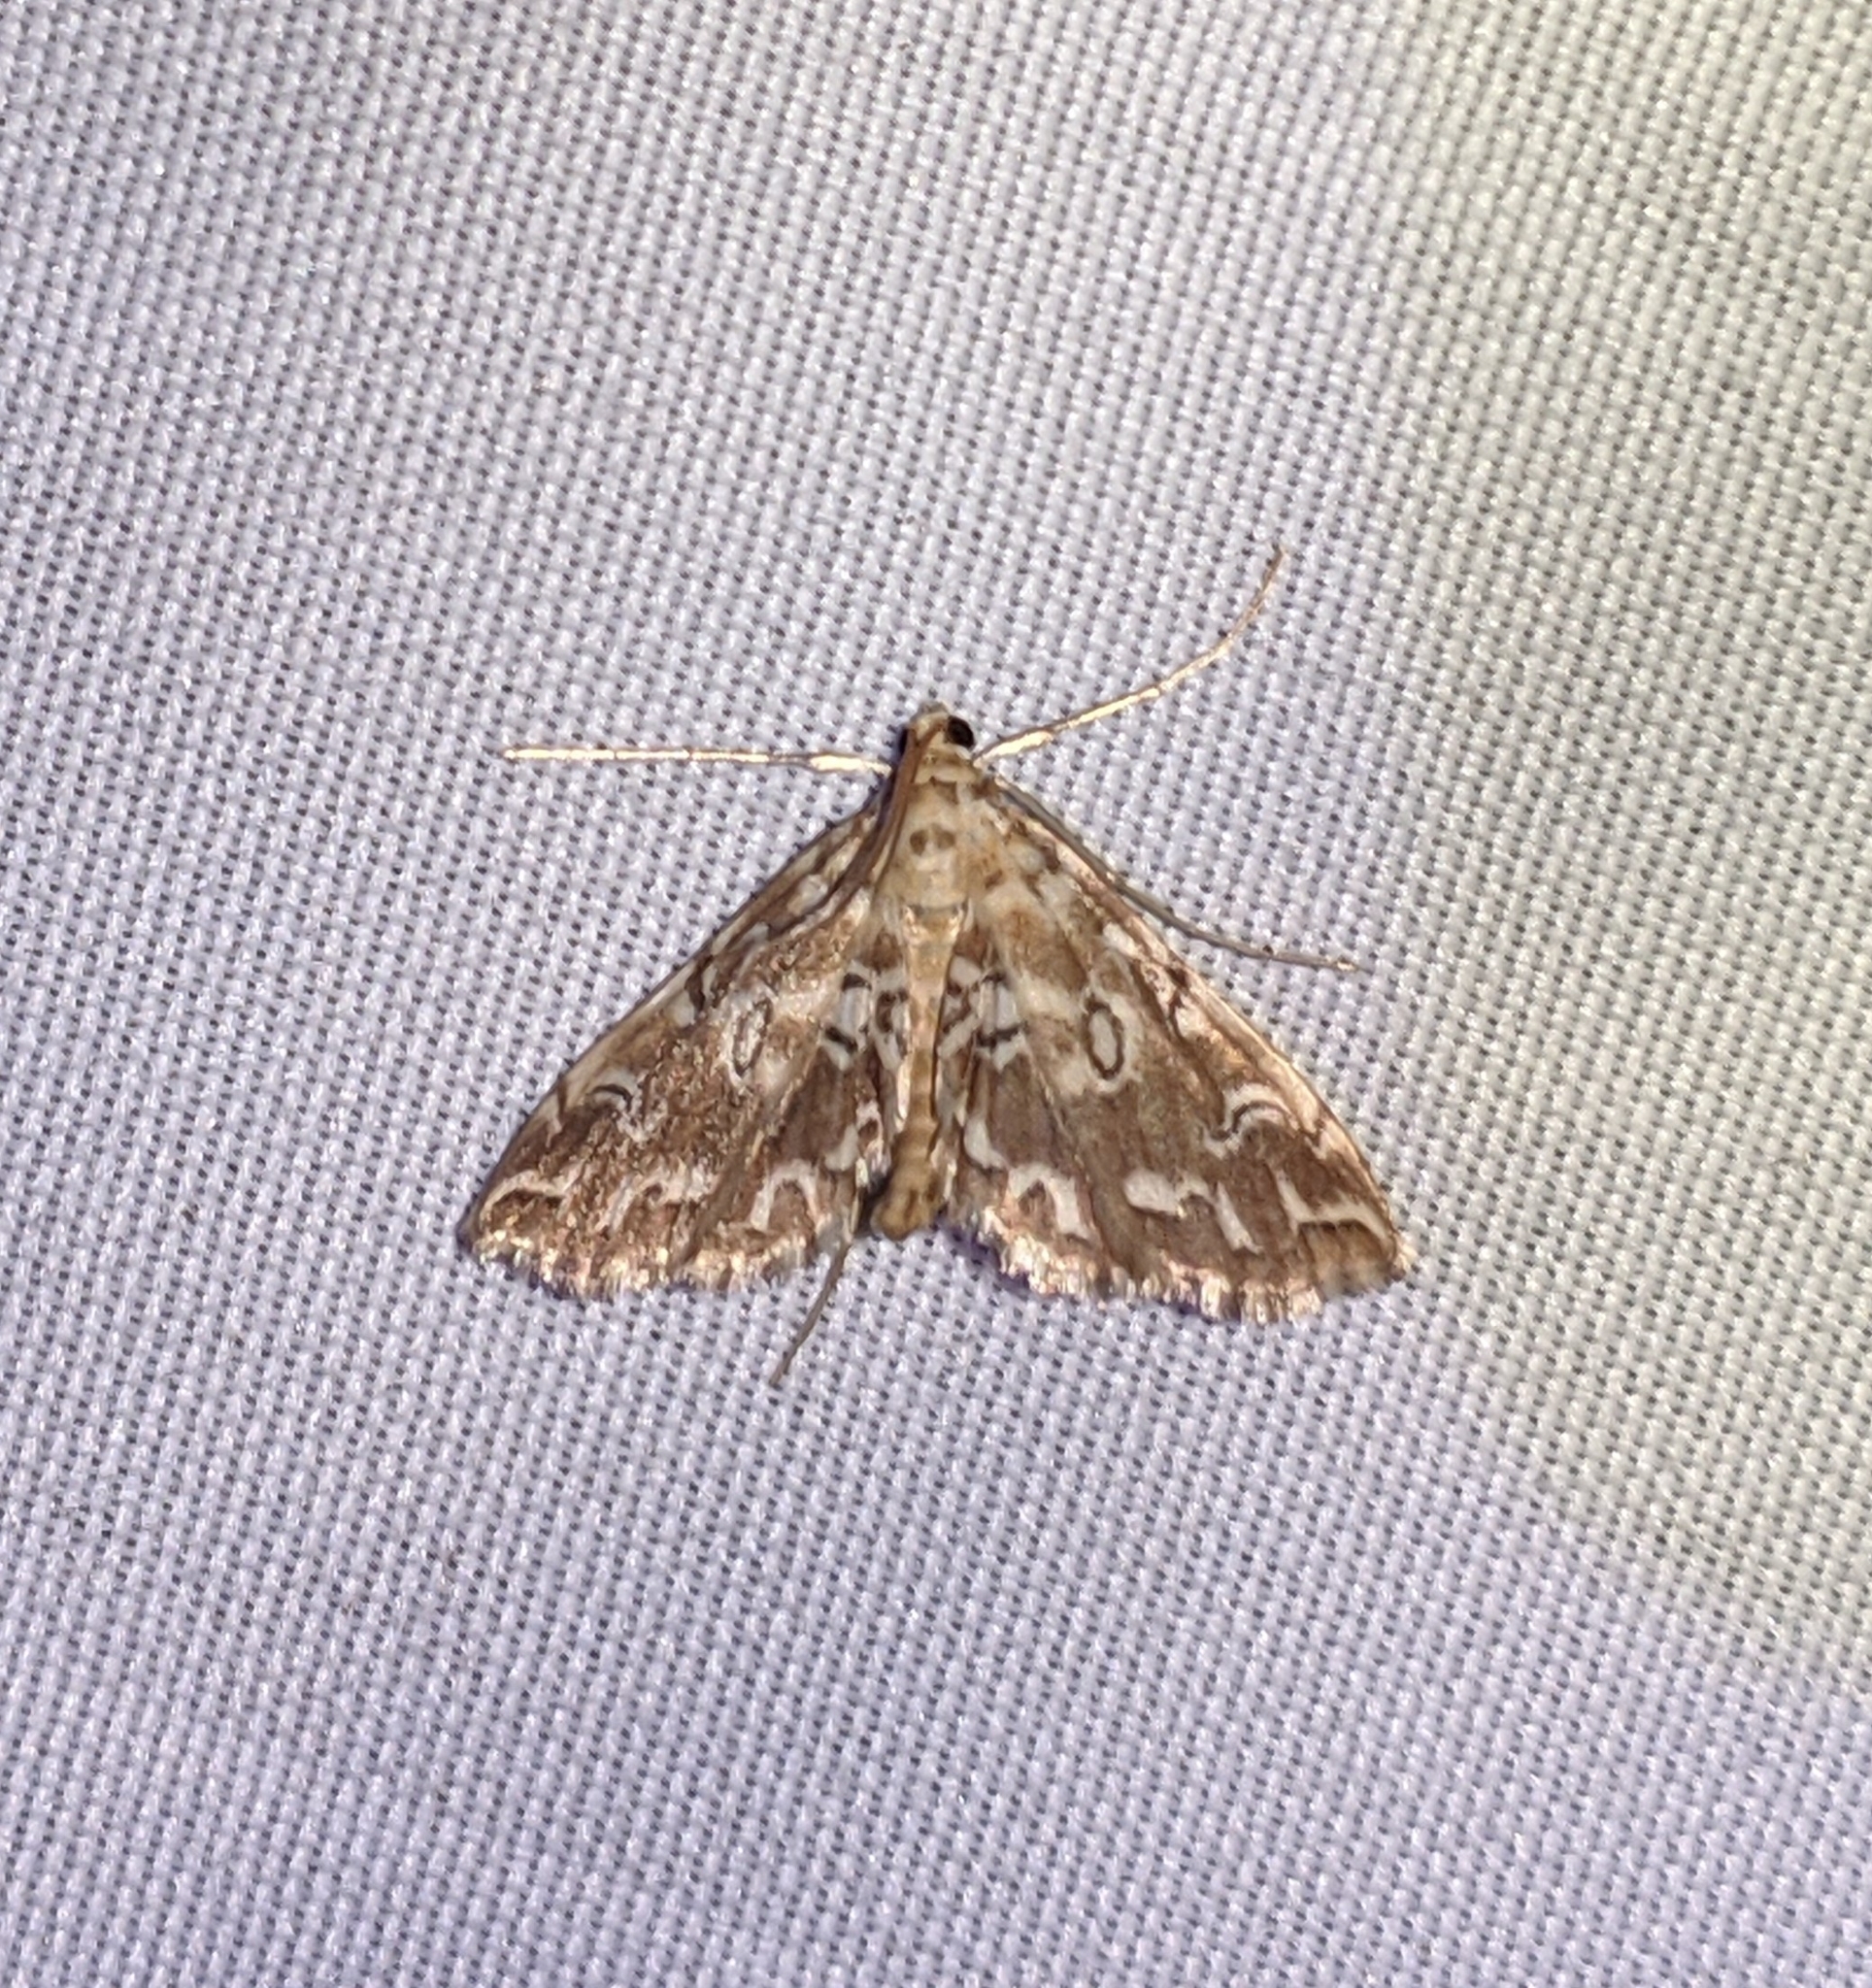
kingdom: Animalia
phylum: Arthropoda
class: Insecta
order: Lepidoptera
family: Crambidae
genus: Elophila
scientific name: Elophila icciusalis
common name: Pondside pyralid moth
